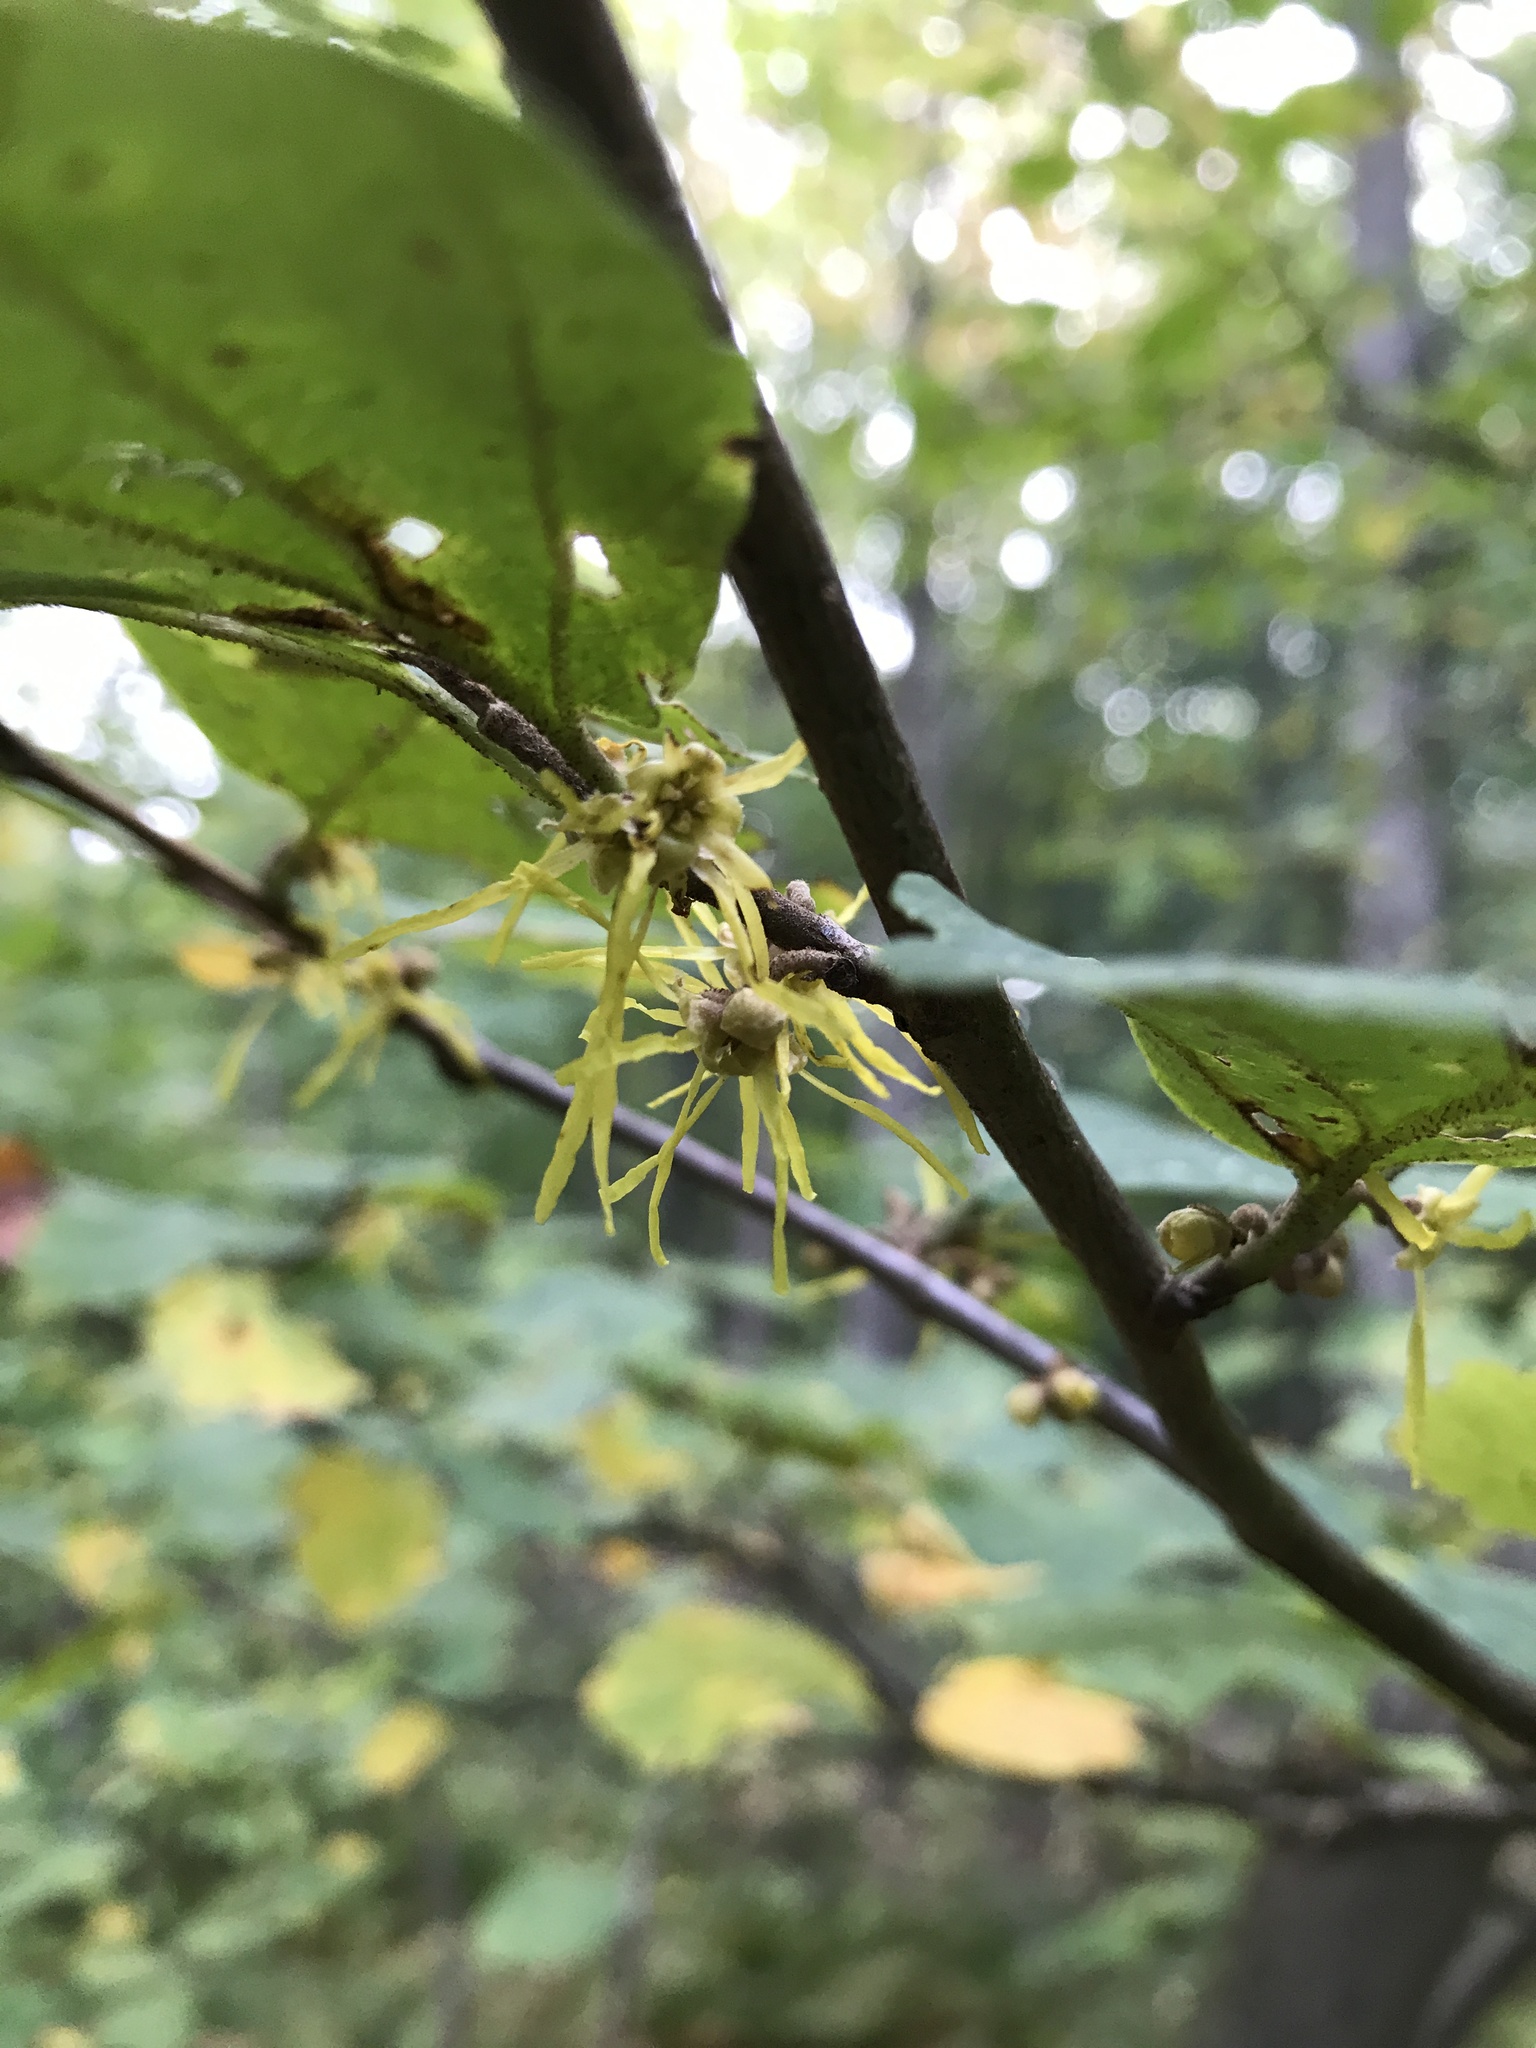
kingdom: Plantae
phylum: Tracheophyta
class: Magnoliopsida
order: Saxifragales
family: Hamamelidaceae
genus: Hamamelis
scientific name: Hamamelis virginiana
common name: Witch-hazel
